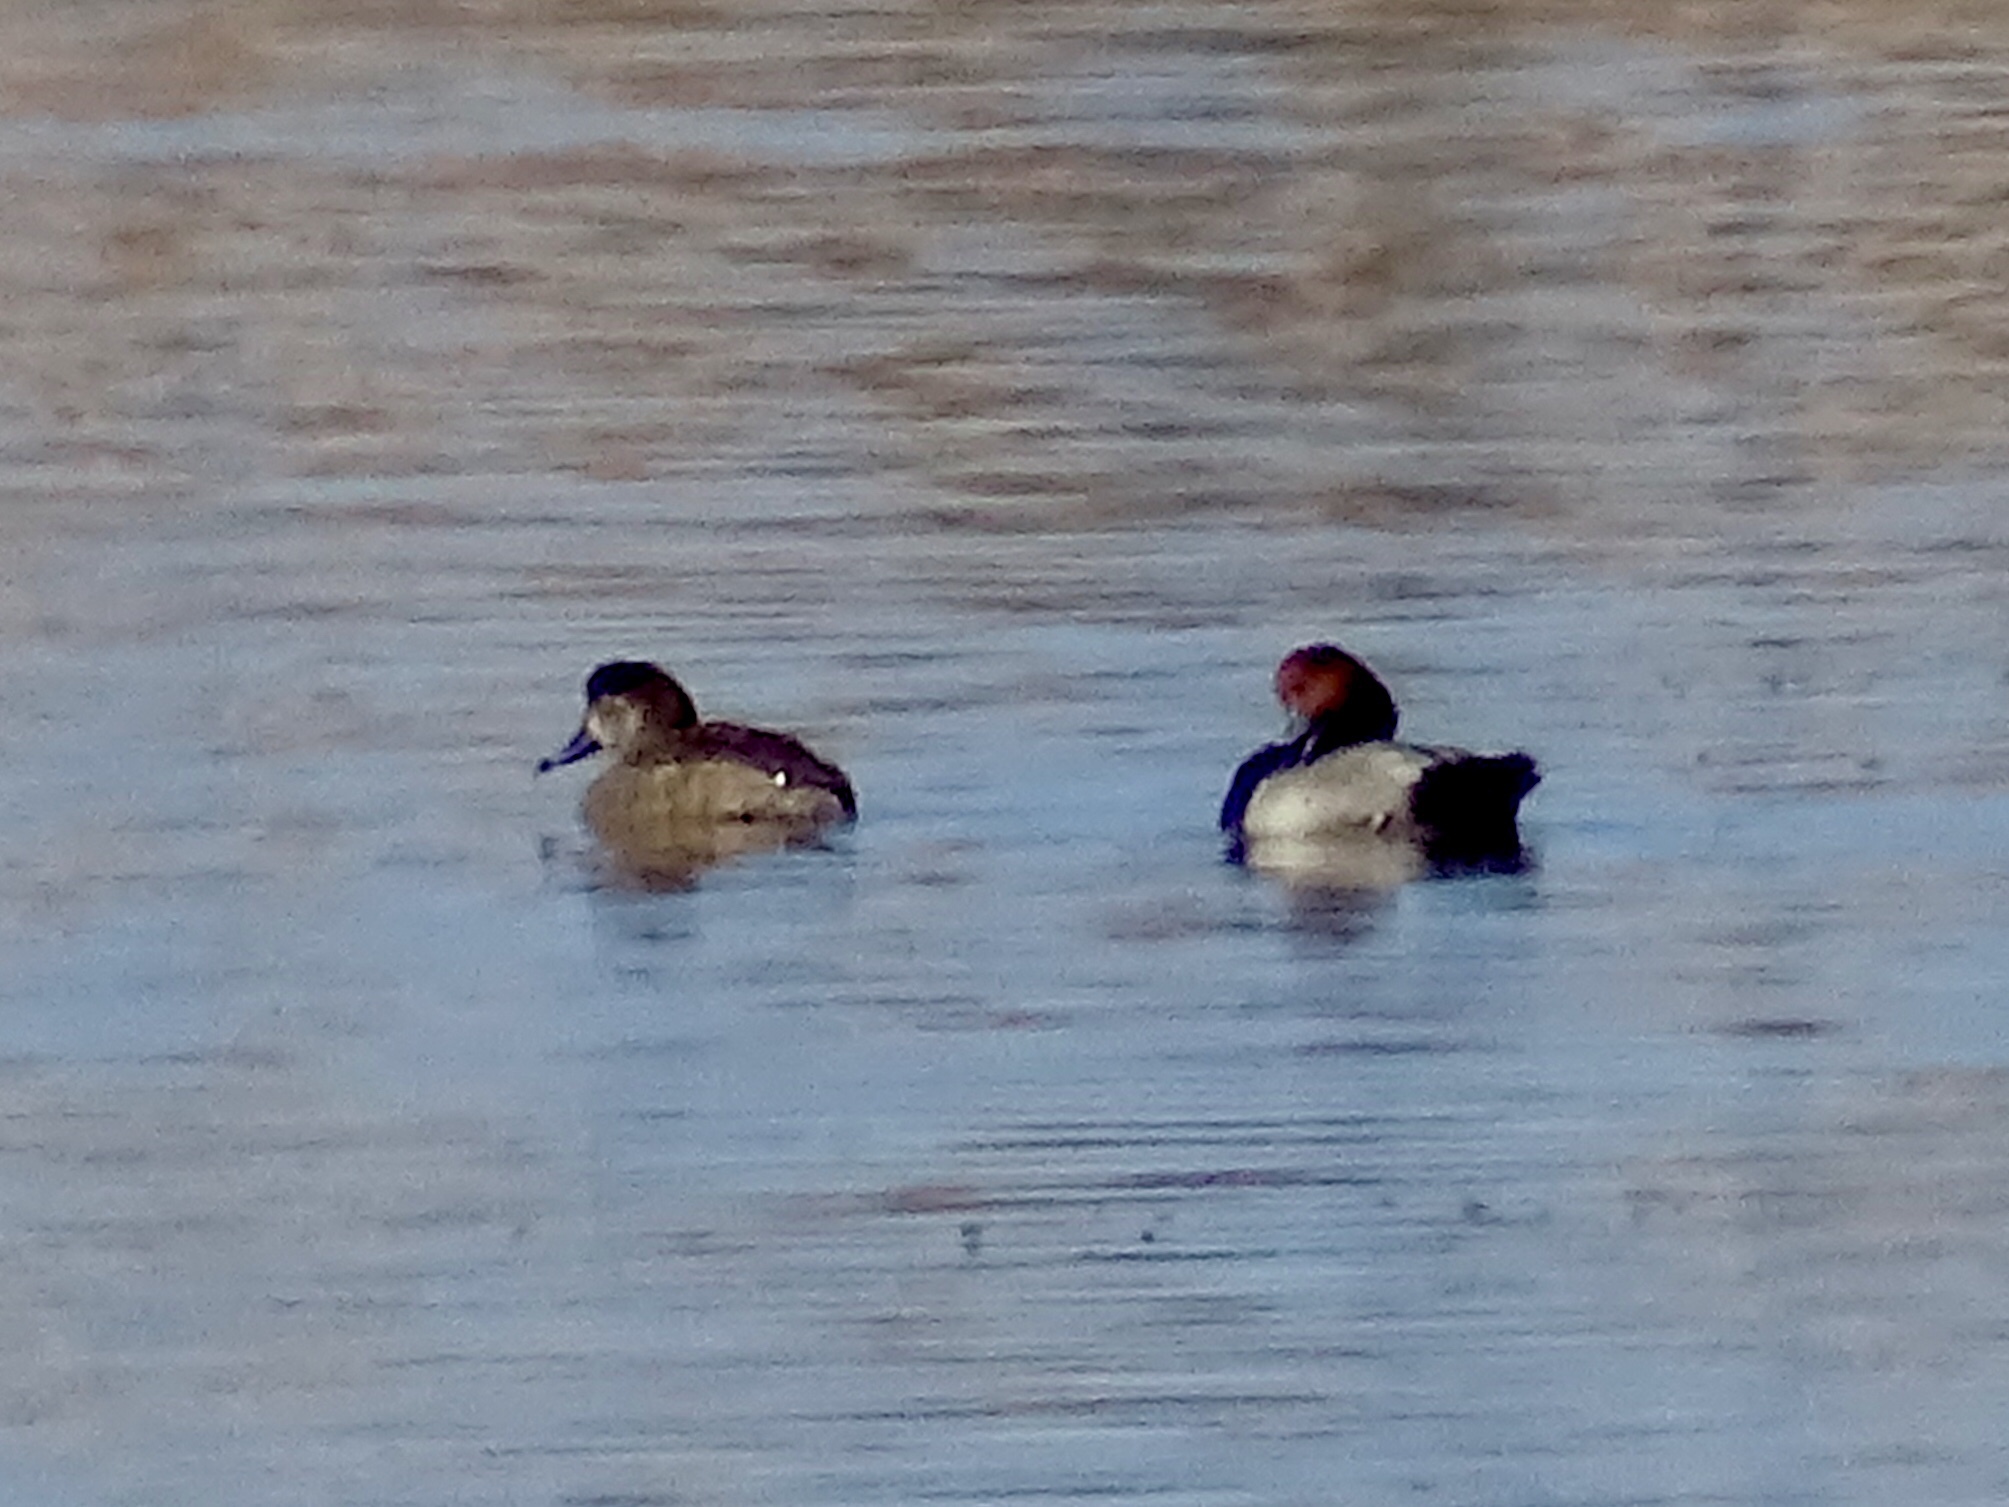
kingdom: Animalia
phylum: Chordata
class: Aves
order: Anseriformes
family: Anatidae
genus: Aythya
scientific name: Aythya americana
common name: Redhead
